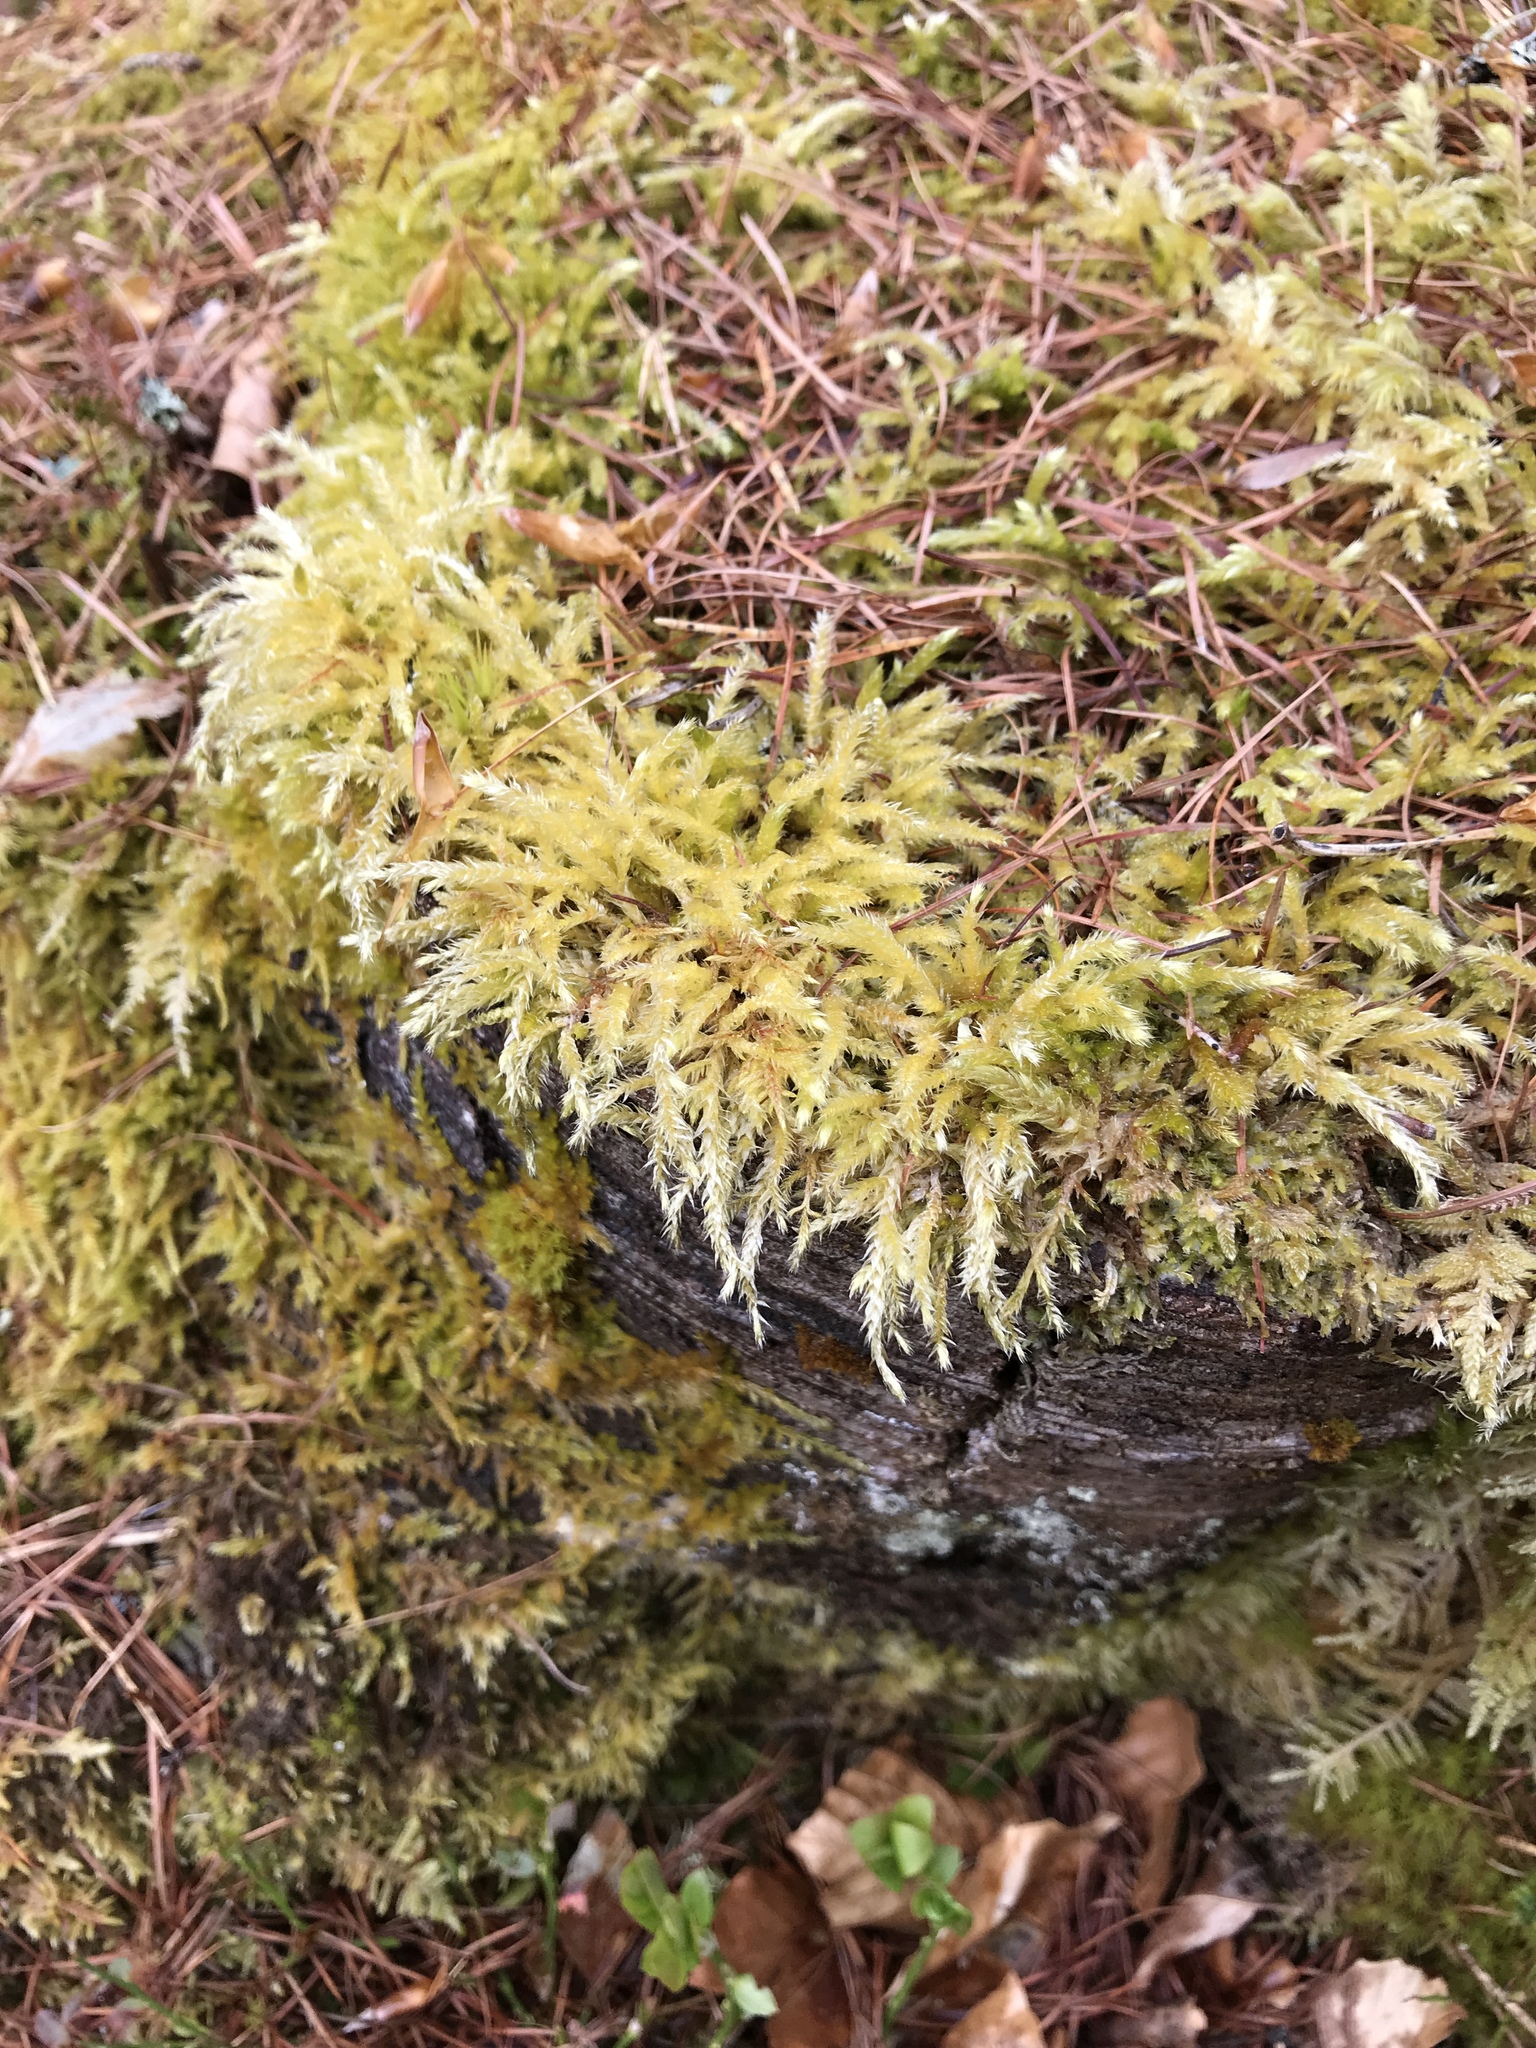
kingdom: Plantae
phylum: Bryophyta
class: Bryopsida
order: Hypnales
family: Brachytheciaceae
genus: Brachythecium
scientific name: Brachythecium rutabulum
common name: Rough-stalked feather-moss
